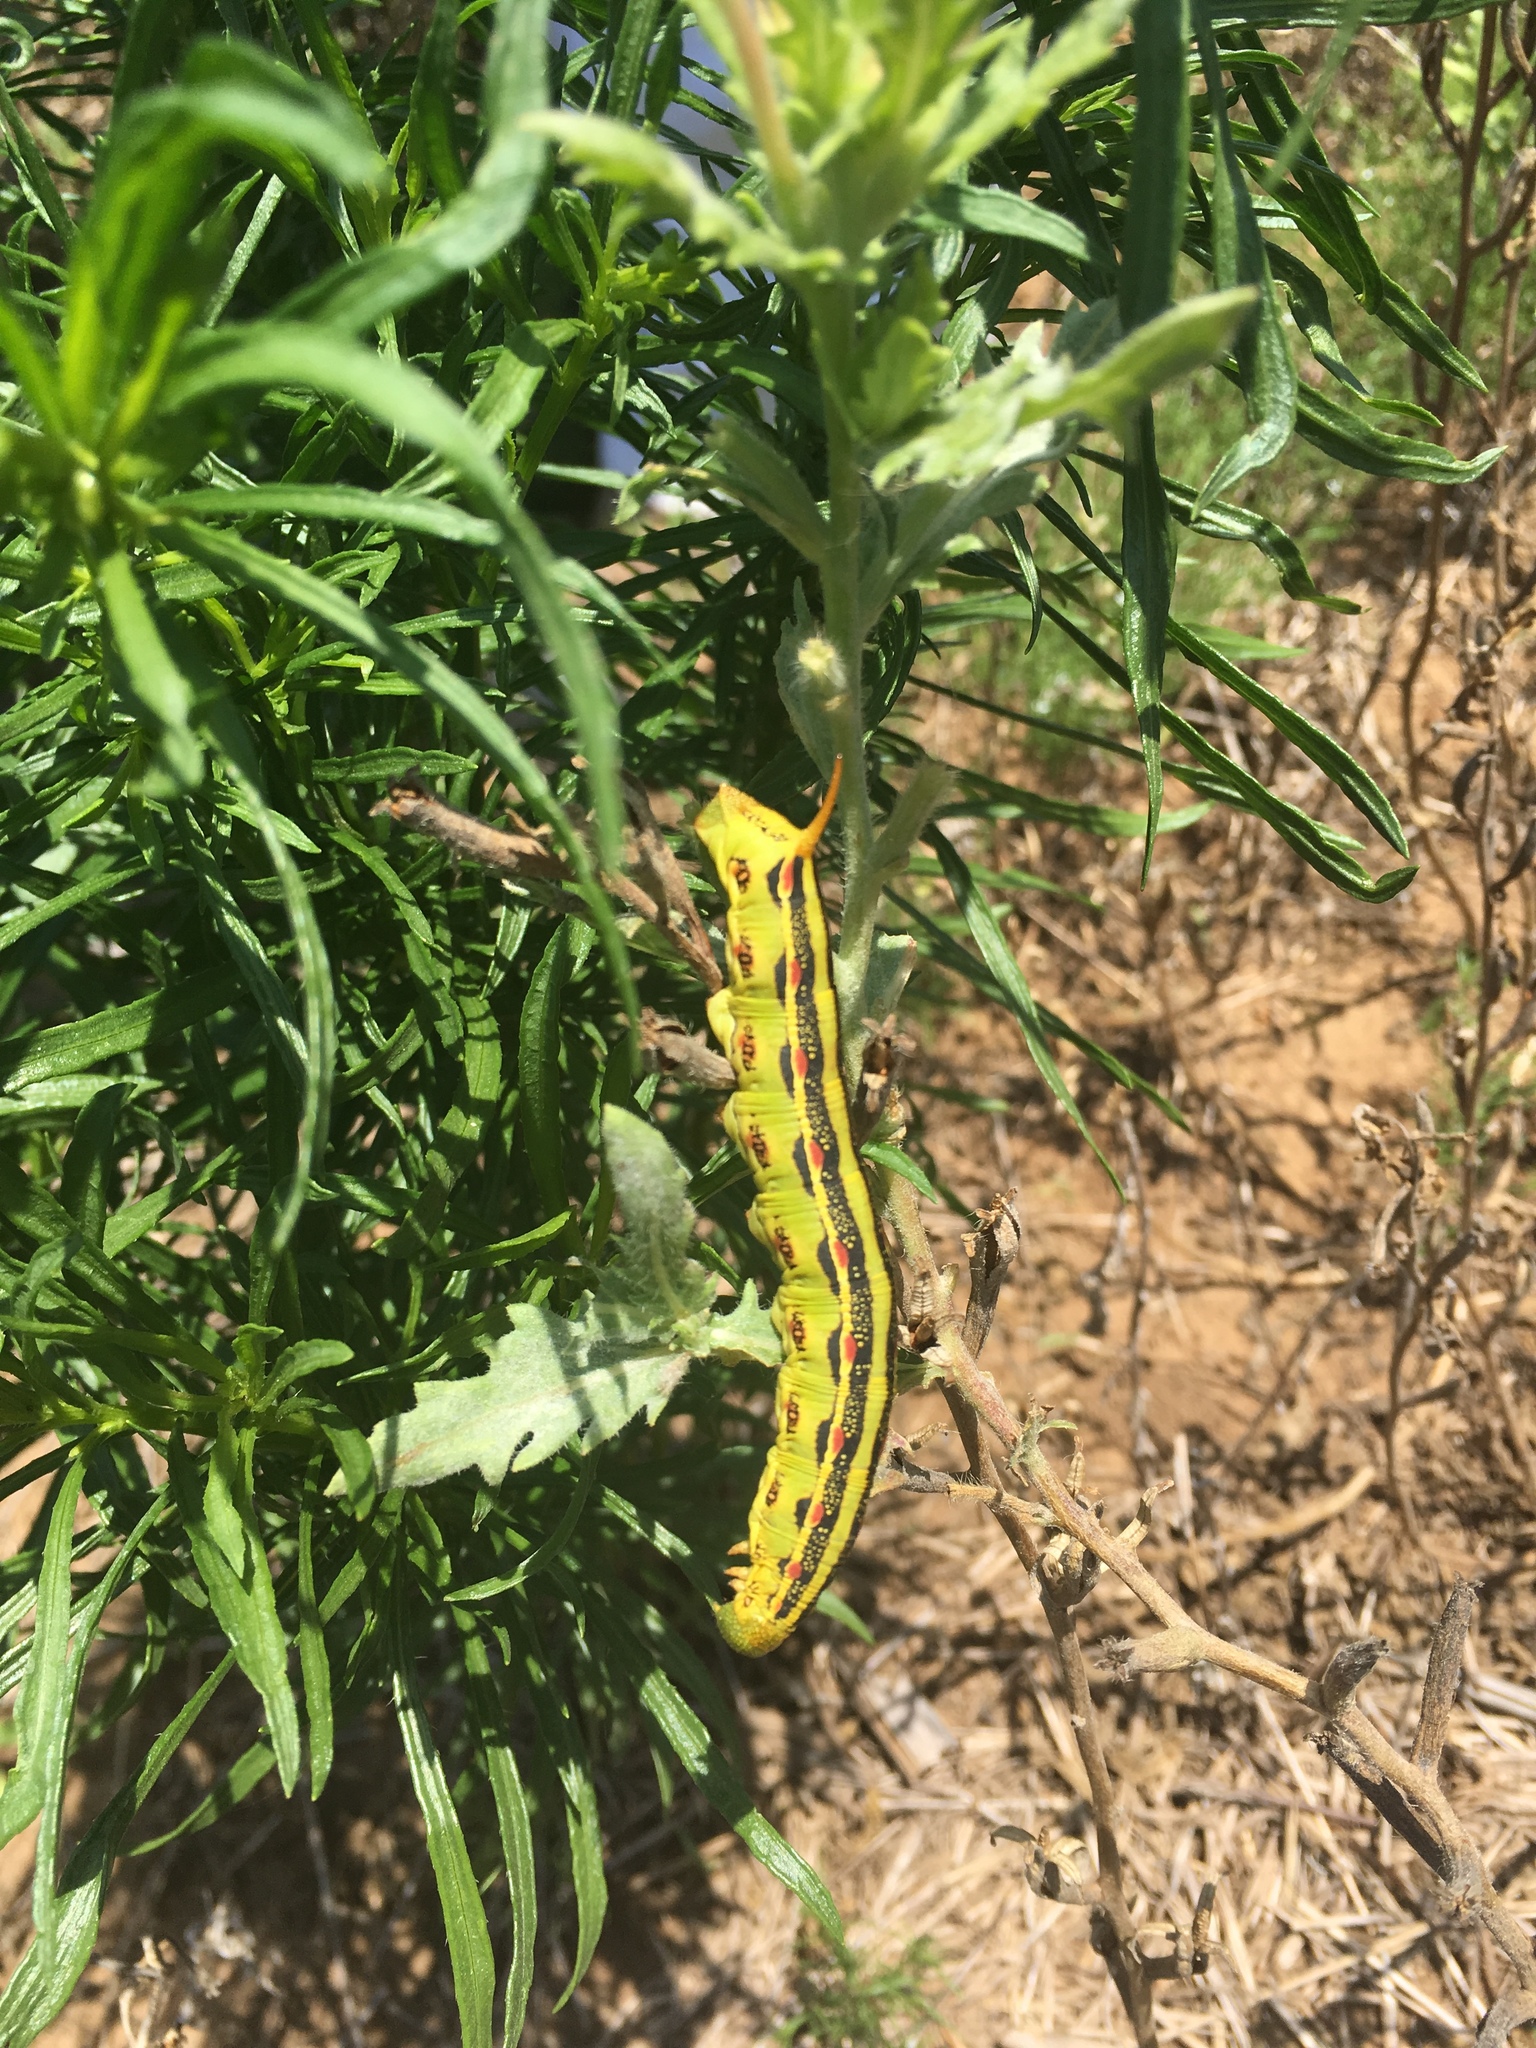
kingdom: Animalia
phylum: Arthropoda
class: Insecta
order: Lepidoptera
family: Sphingidae
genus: Hyles
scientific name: Hyles lineata
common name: White-lined sphinx
